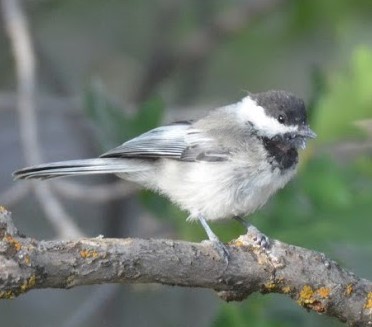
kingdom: Animalia
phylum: Chordata
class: Aves
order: Passeriformes
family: Paridae
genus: Poecile
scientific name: Poecile atricapillus
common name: Black-capped chickadee
